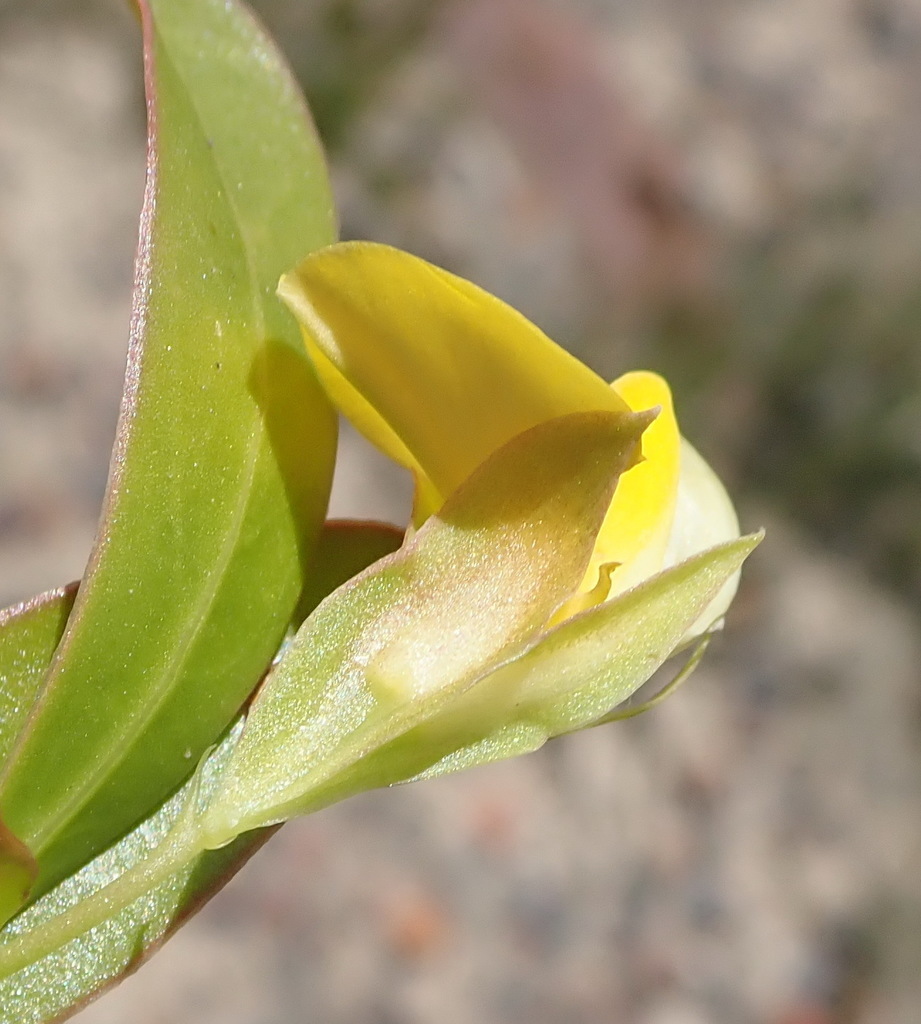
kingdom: Plantae
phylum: Tracheophyta
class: Magnoliopsida
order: Fabales
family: Fabaceae
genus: Rafnia
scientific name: Rafnia vlokii
